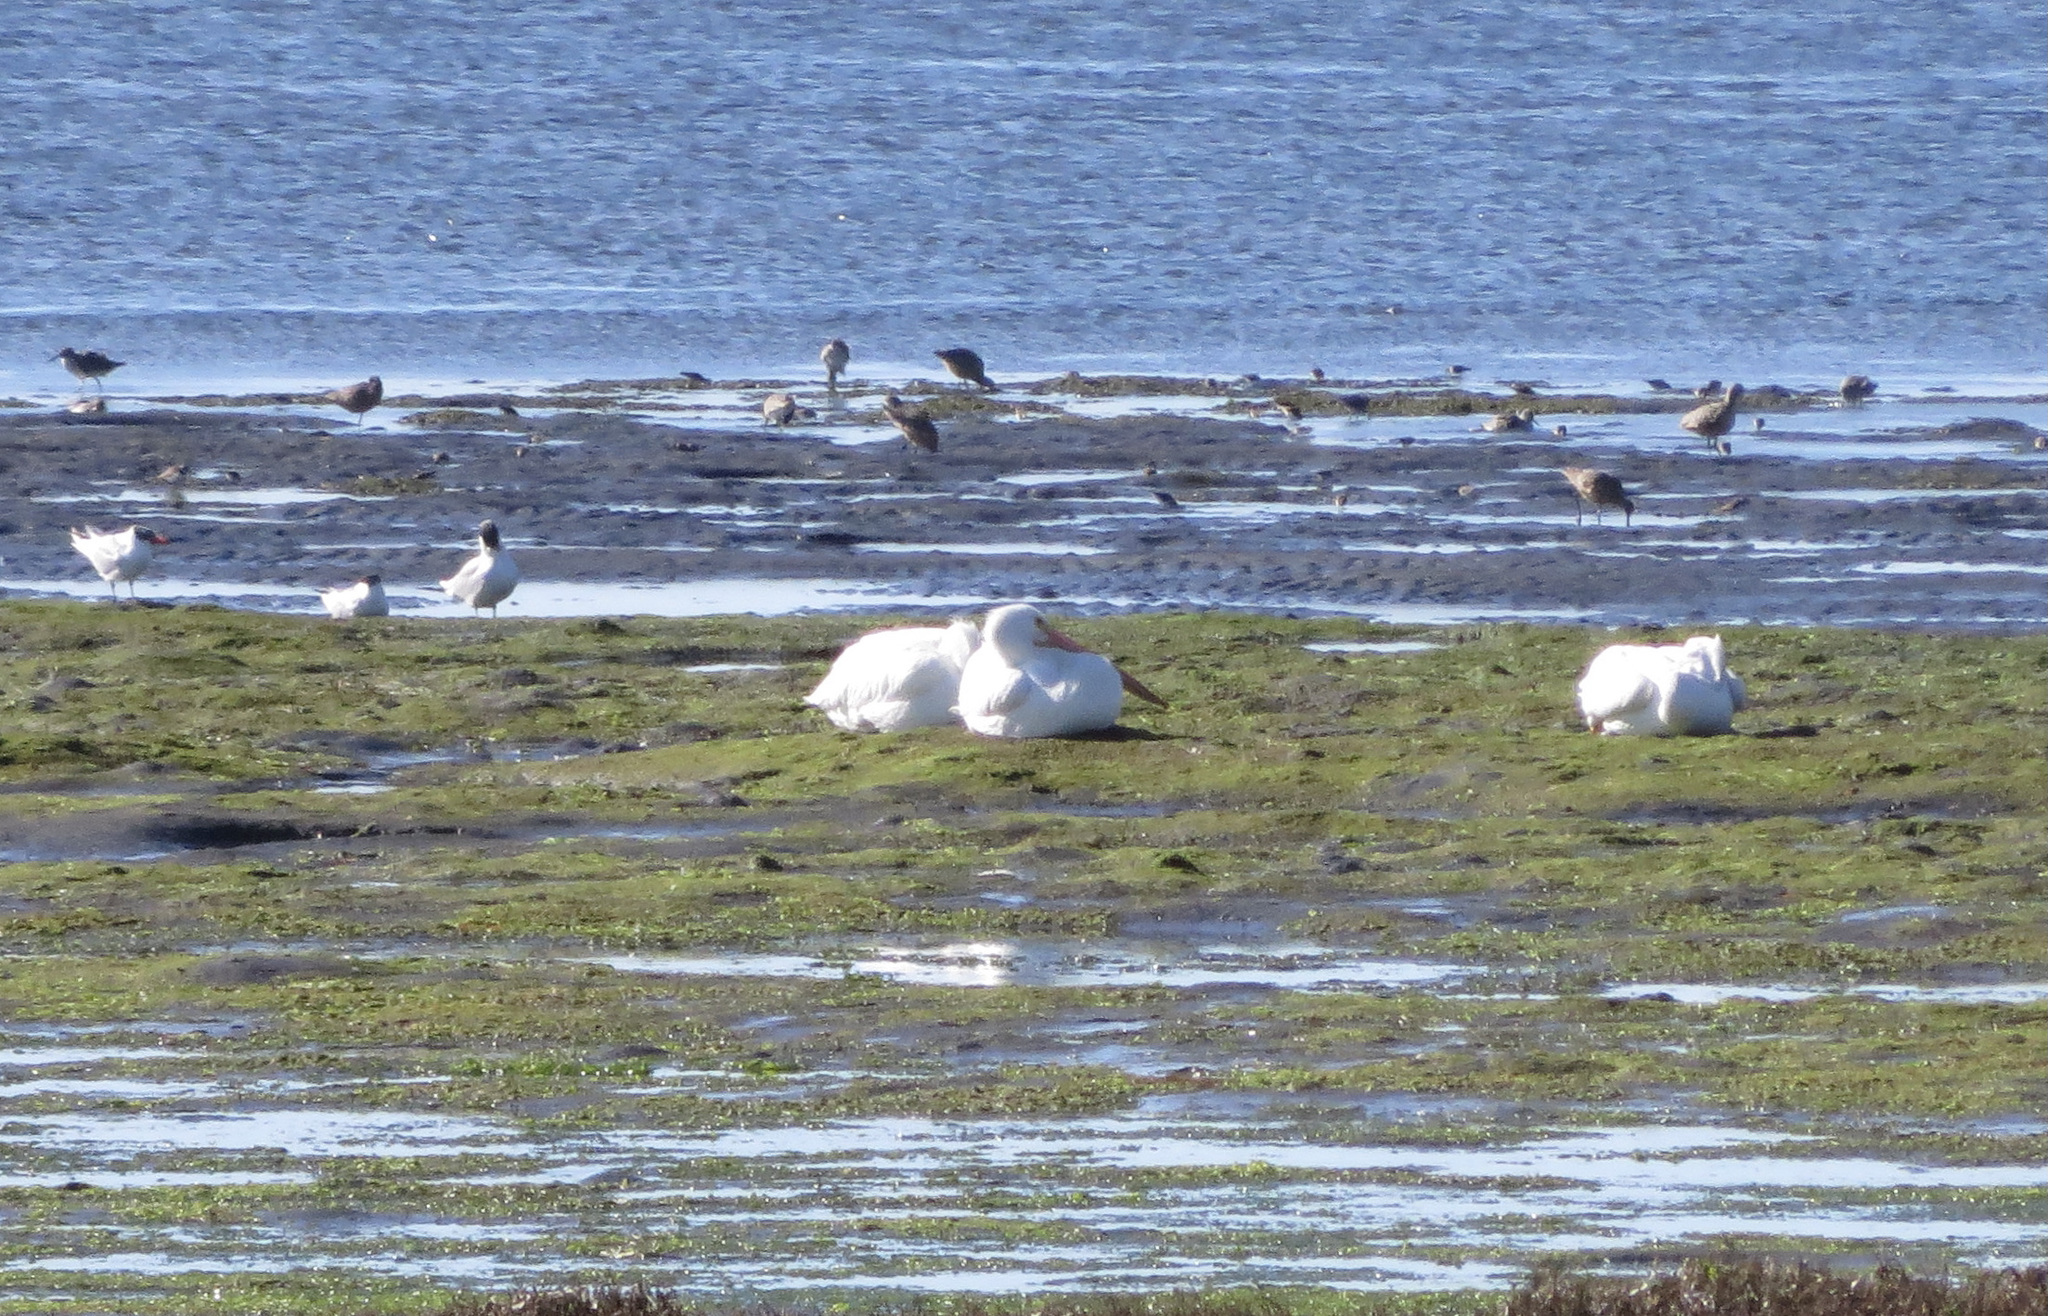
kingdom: Animalia
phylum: Chordata
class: Aves
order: Pelecaniformes
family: Pelecanidae
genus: Pelecanus
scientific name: Pelecanus erythrorhynchos
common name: American white pelican
